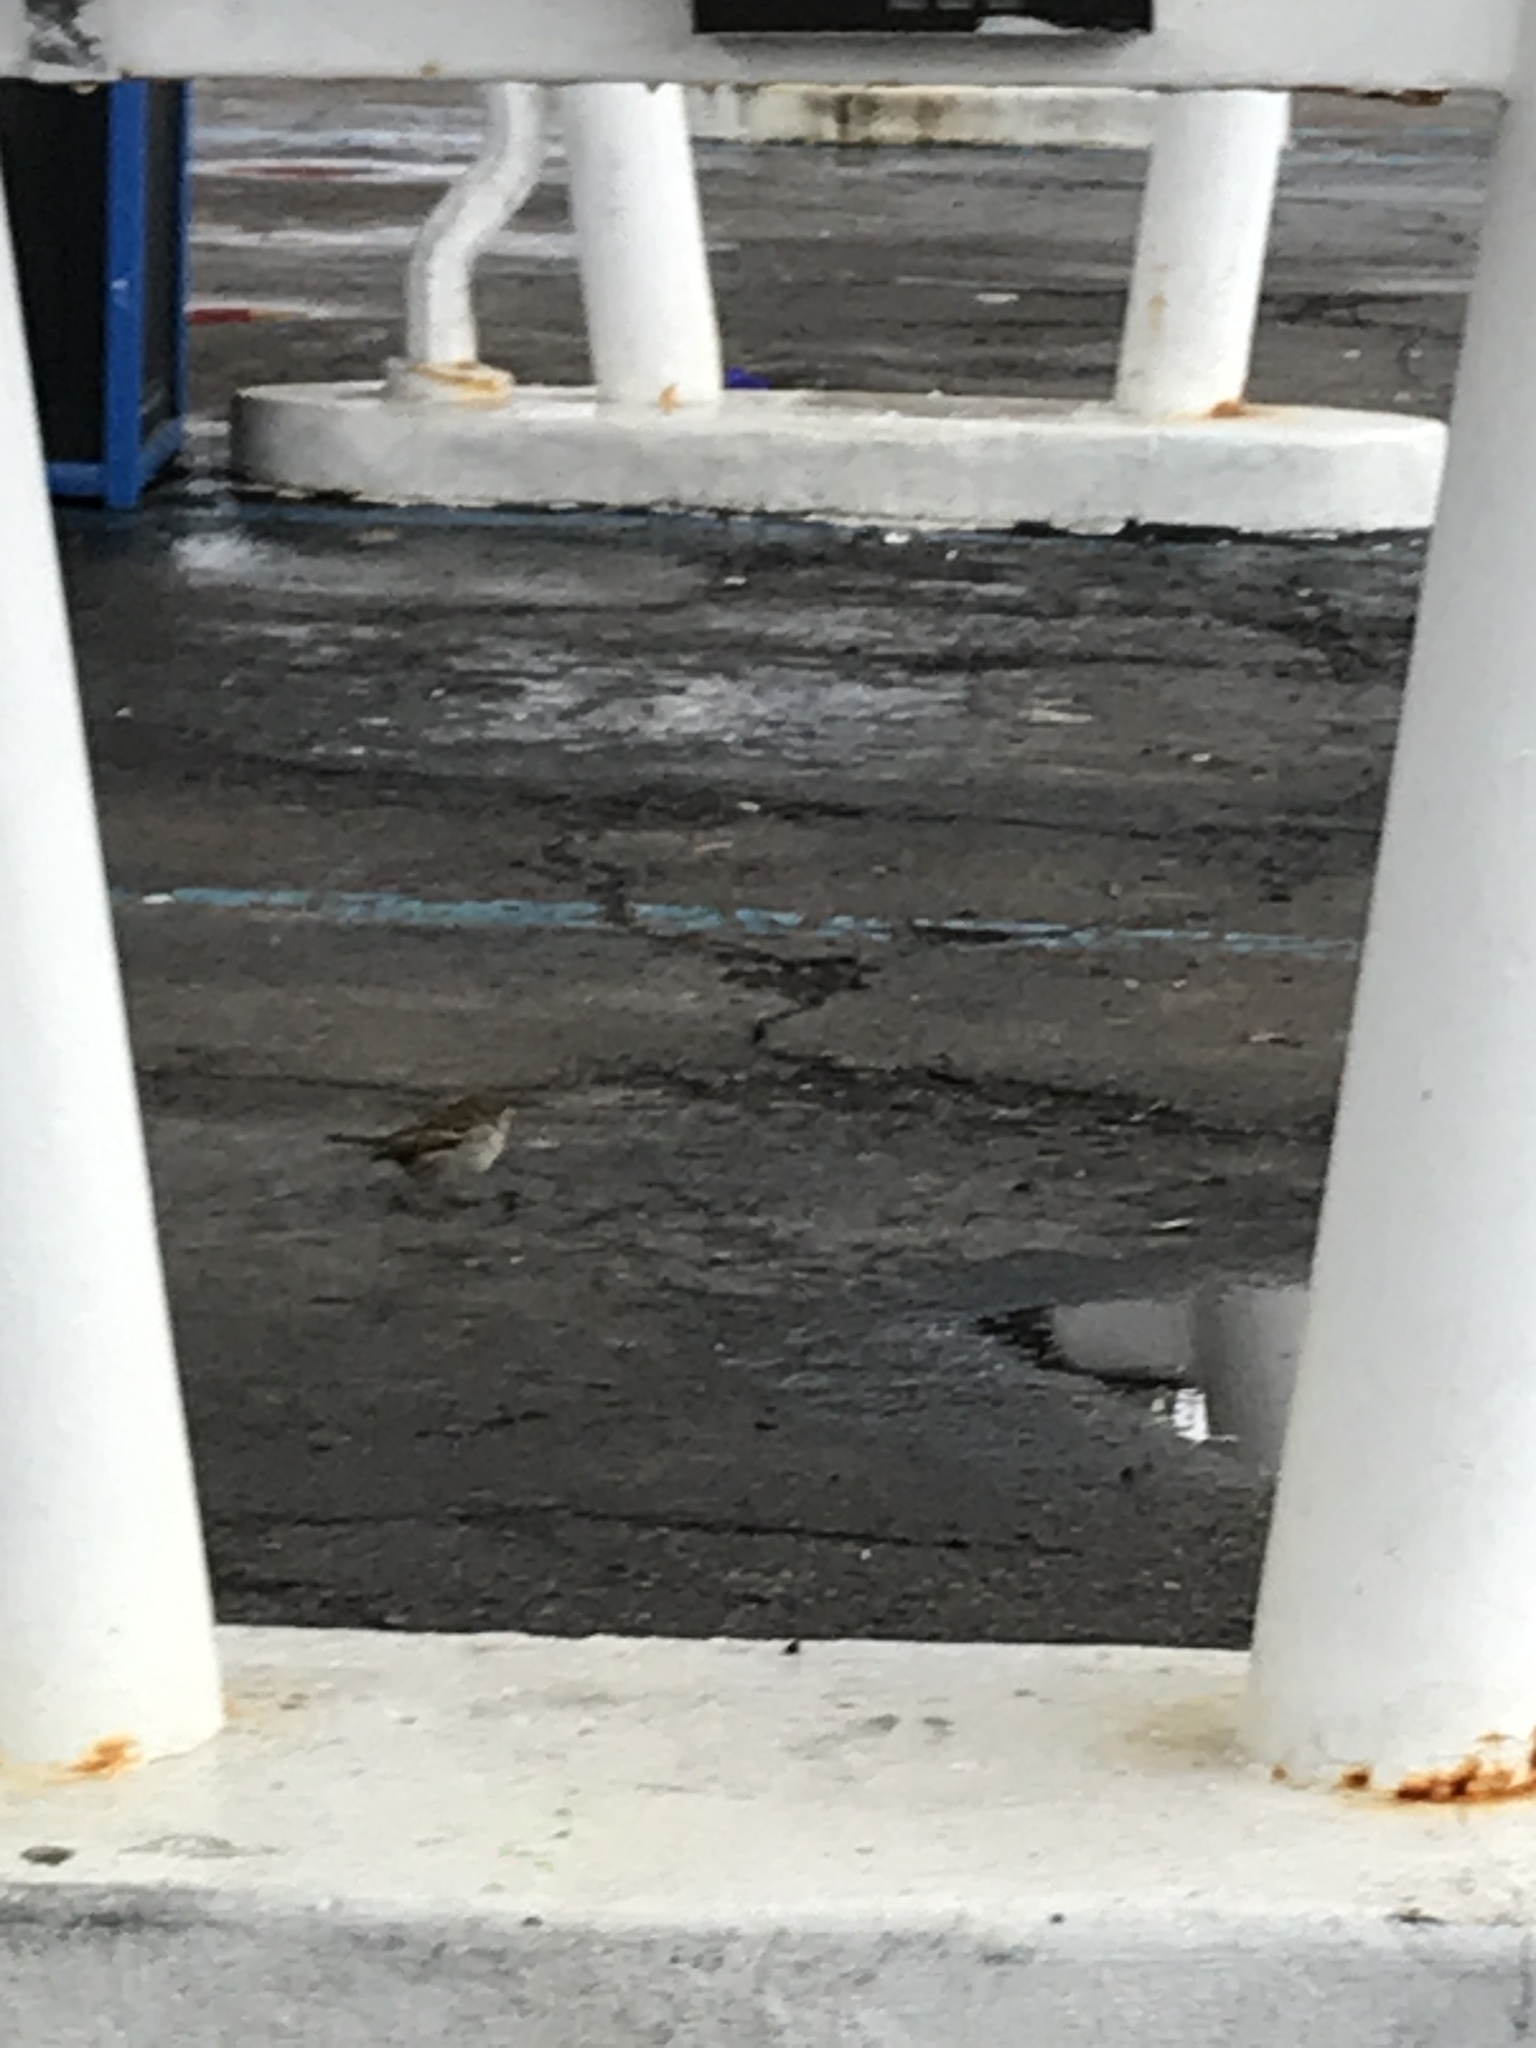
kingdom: Animalia
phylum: Chordata
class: Aves
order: Passeriformes
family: Passeridae
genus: Passer
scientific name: Passer domesticus
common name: House sparrow
